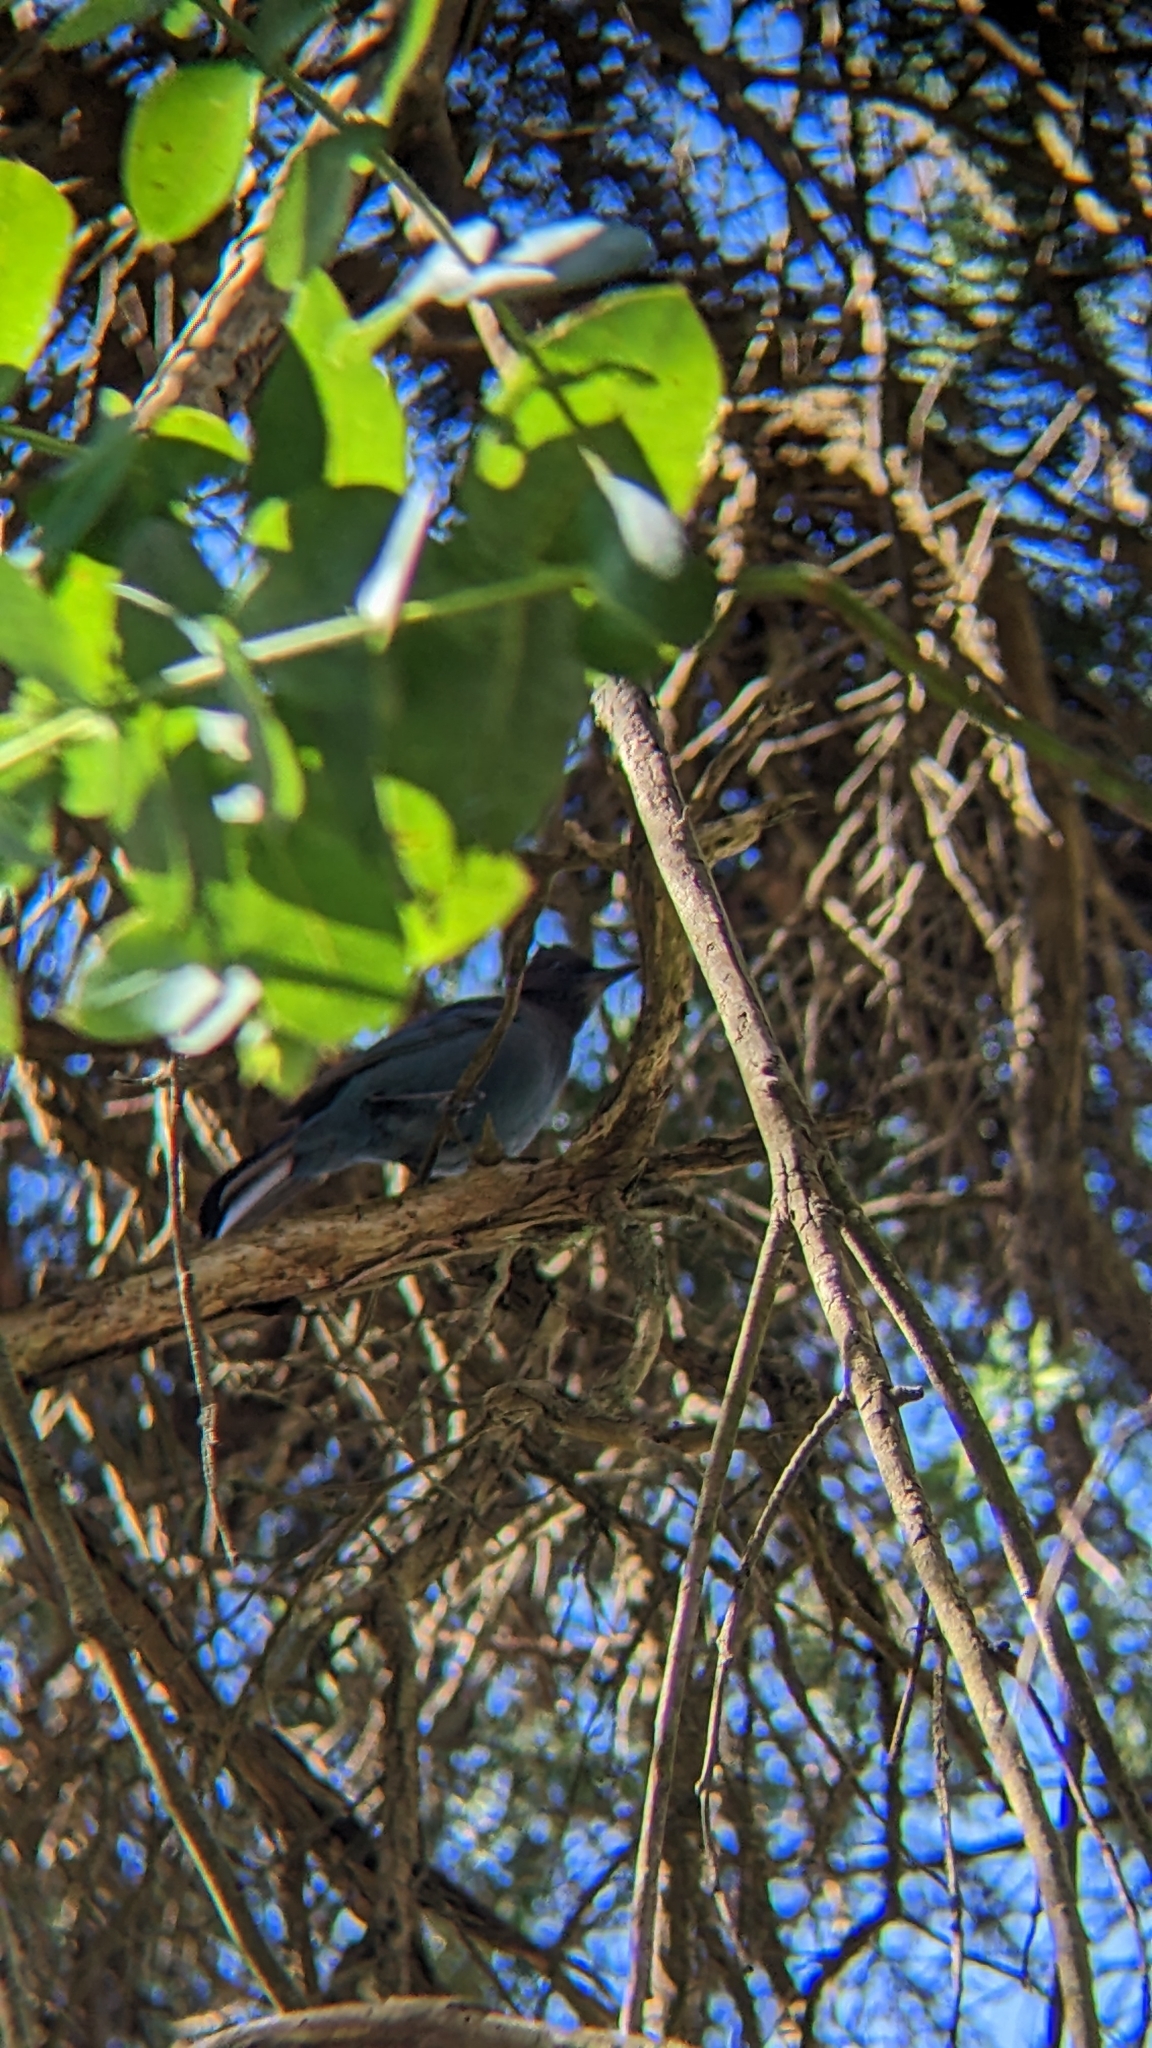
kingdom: Animalia
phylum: Chordata
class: Aves
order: Passeriformes
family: Corvidae
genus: Cyanocitta
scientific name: Cyanocitta stelleri
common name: Steller's jay
